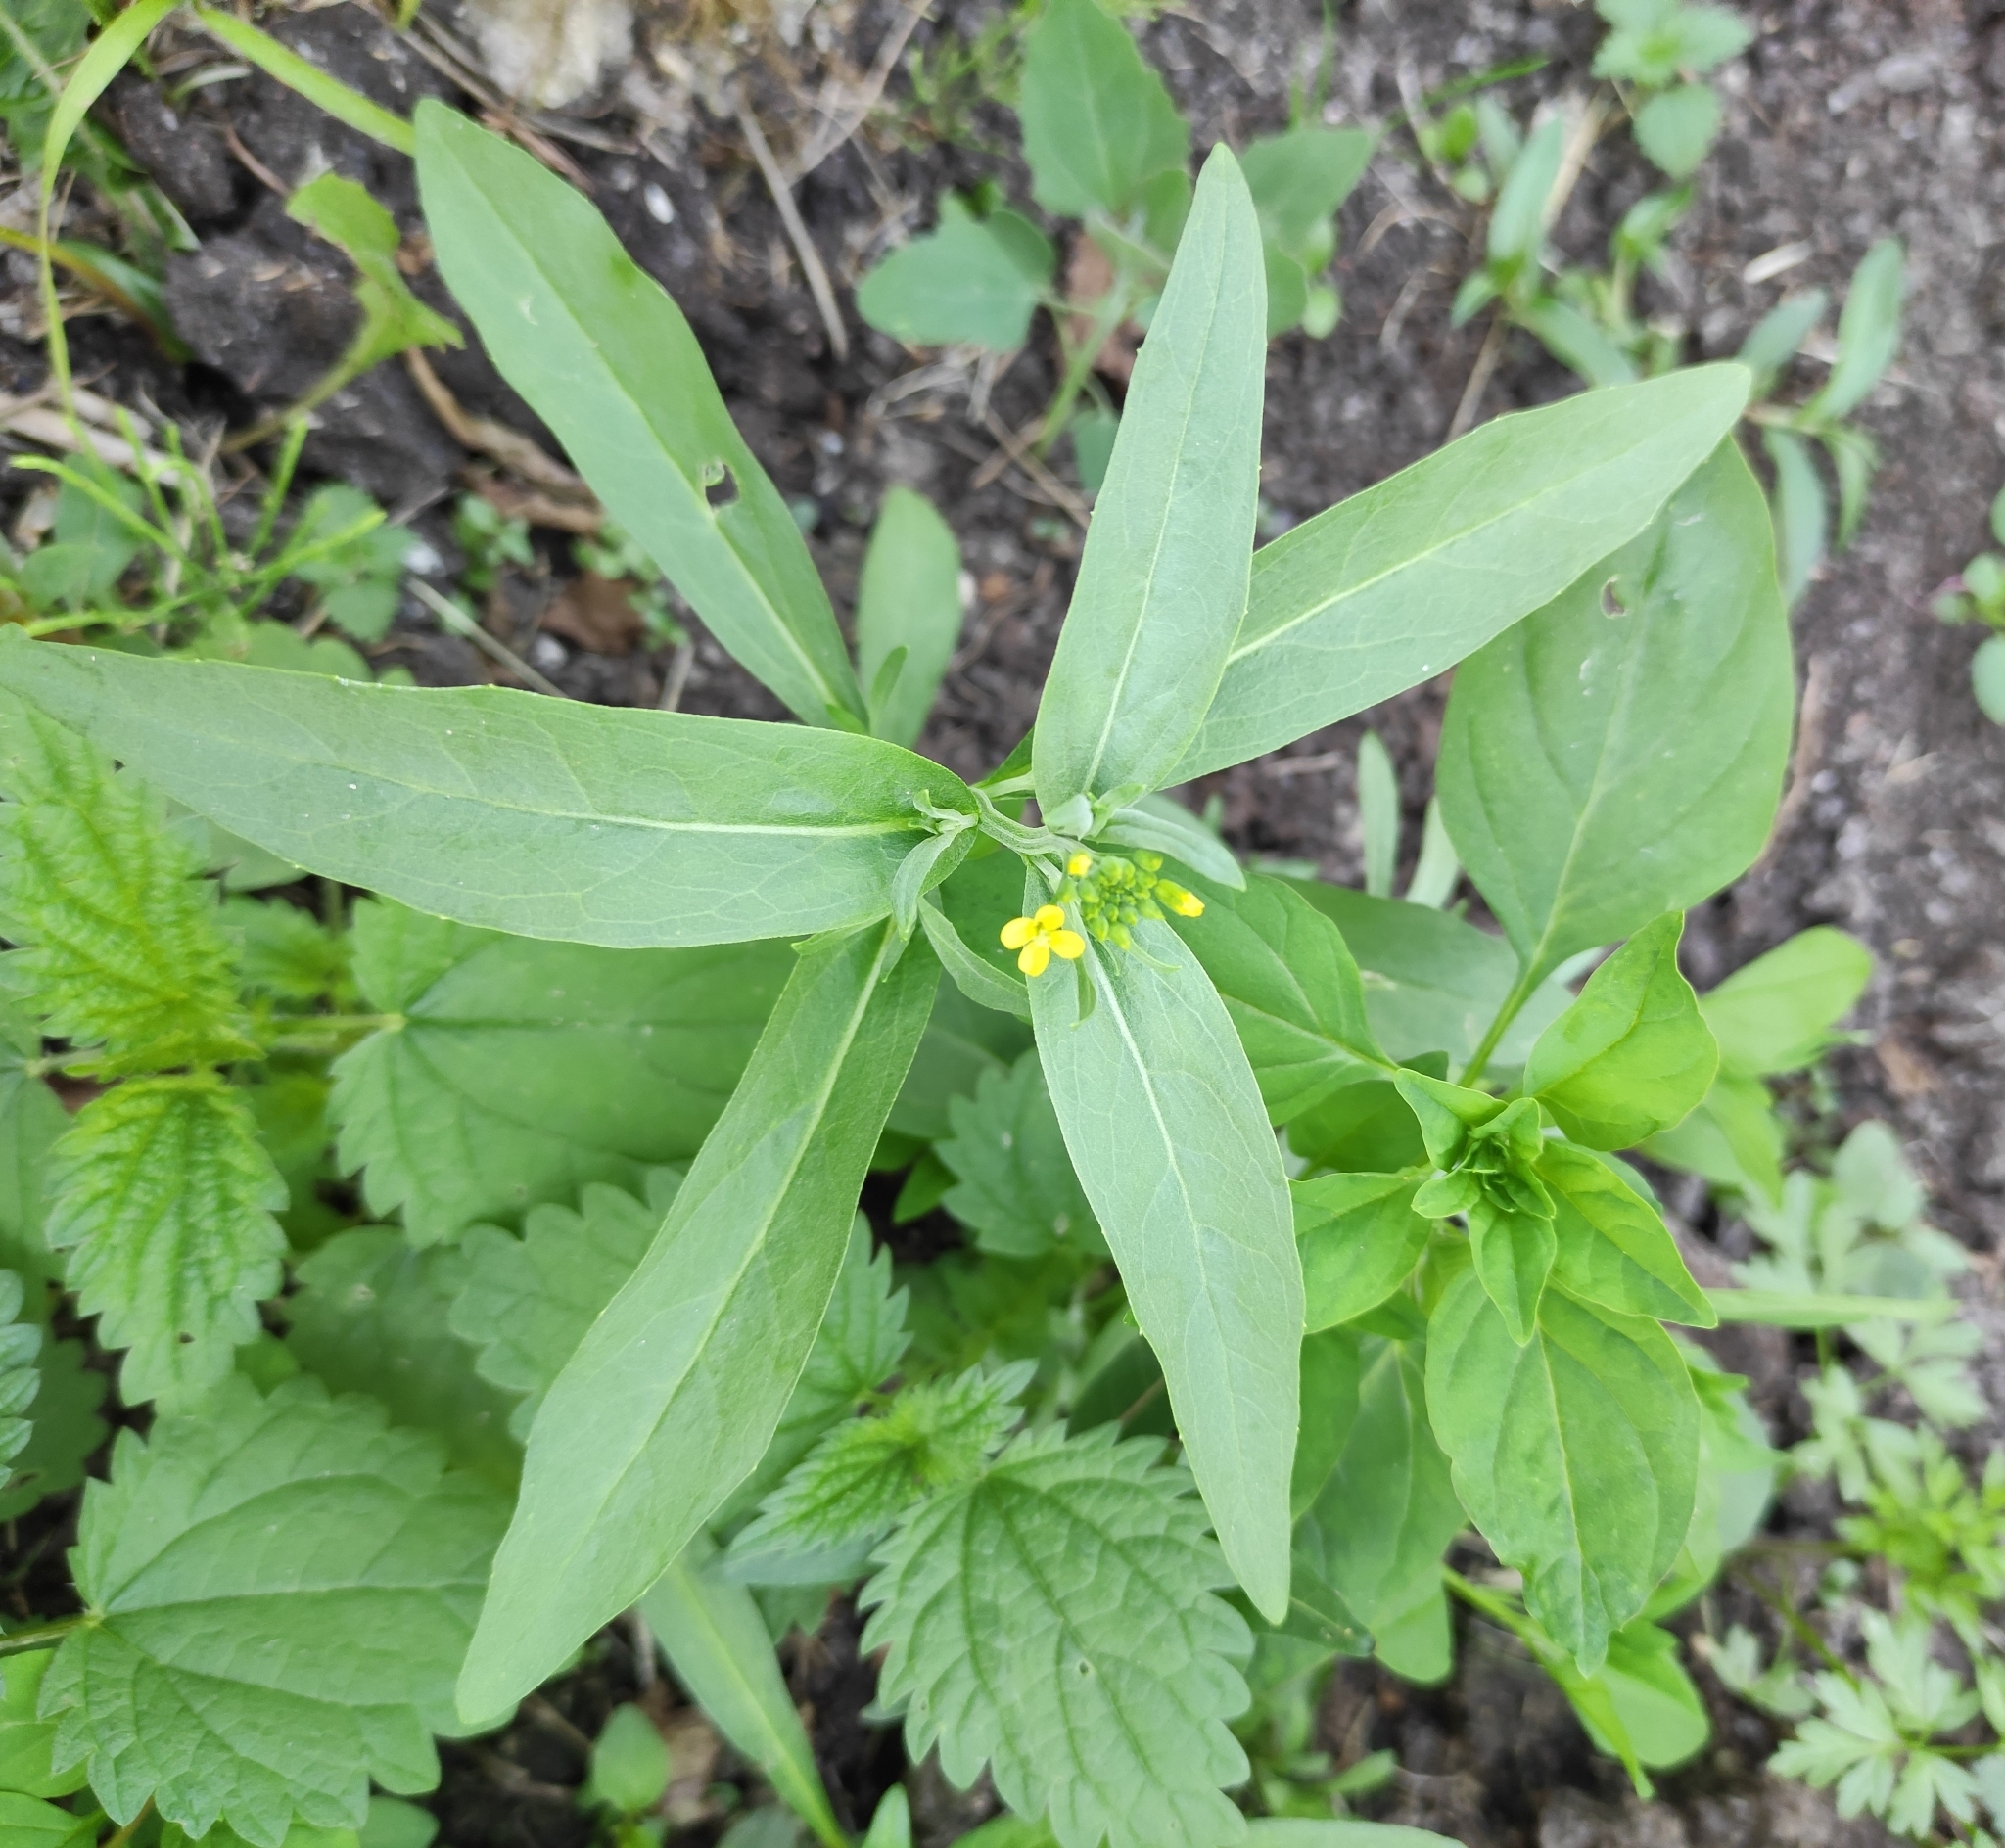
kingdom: Plantae
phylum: Tracheophyta
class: Magnoliopsida
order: Brassicales
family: Brassicaceae
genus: Erysimum
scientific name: Erysimum cheiranthoides
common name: Treacle mustard
